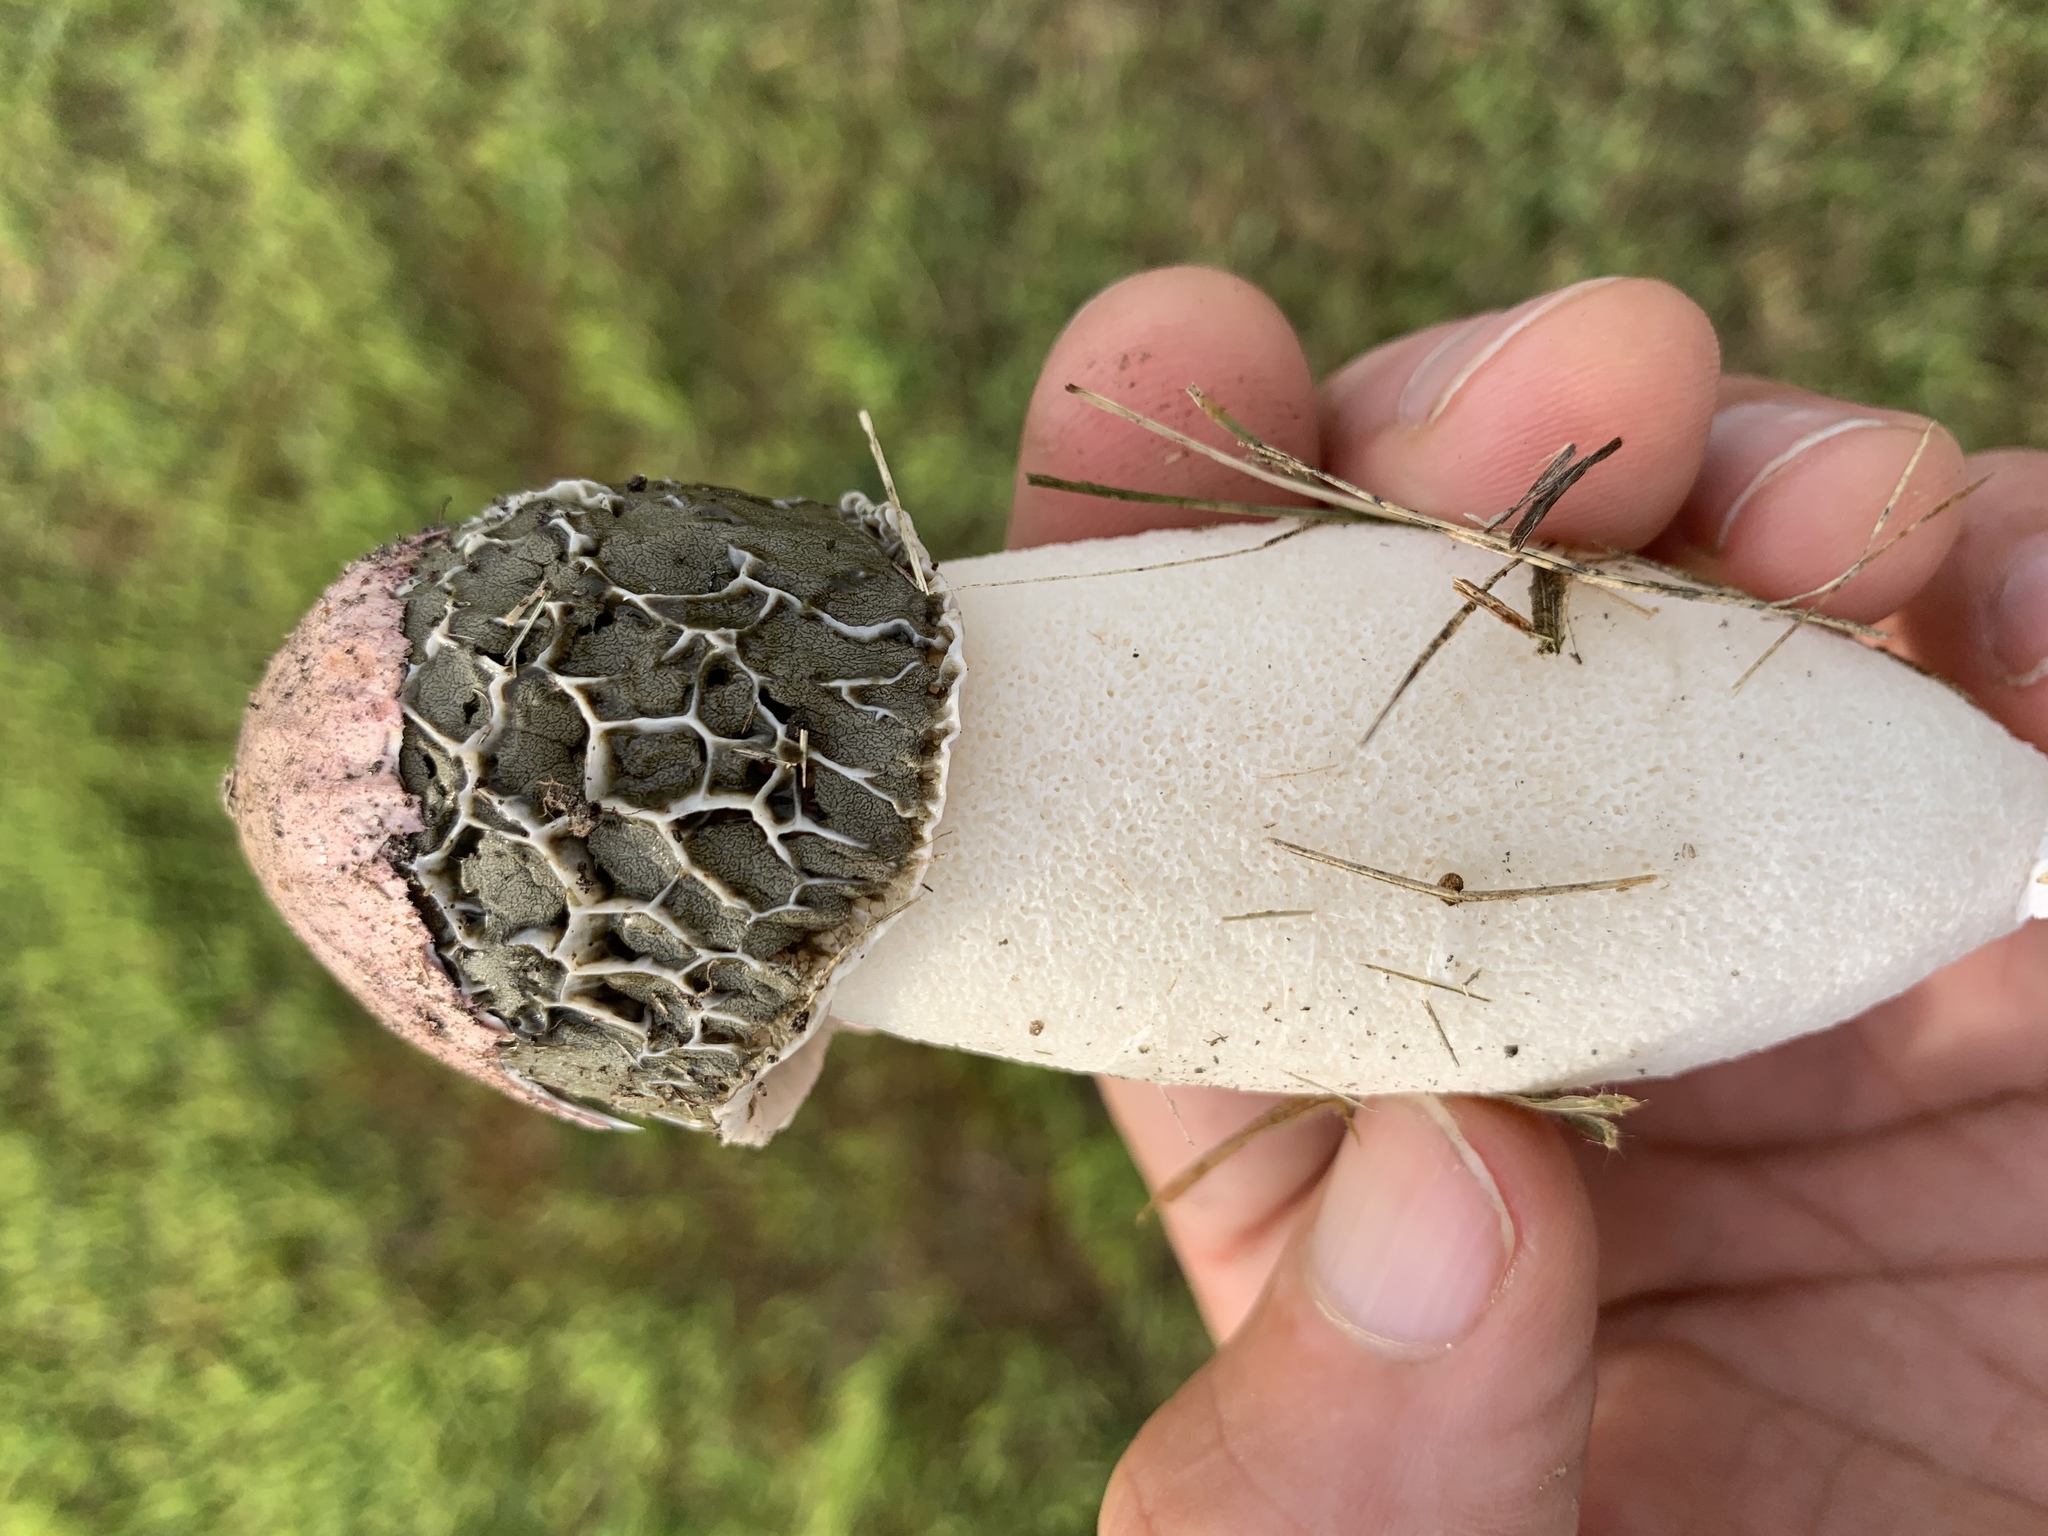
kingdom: Fungi
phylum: Basidiomycota
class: Agaricomycetes
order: Phallales
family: Phallaceae
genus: Phallus
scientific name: Phallus hadriani
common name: Sand stinkhorn
